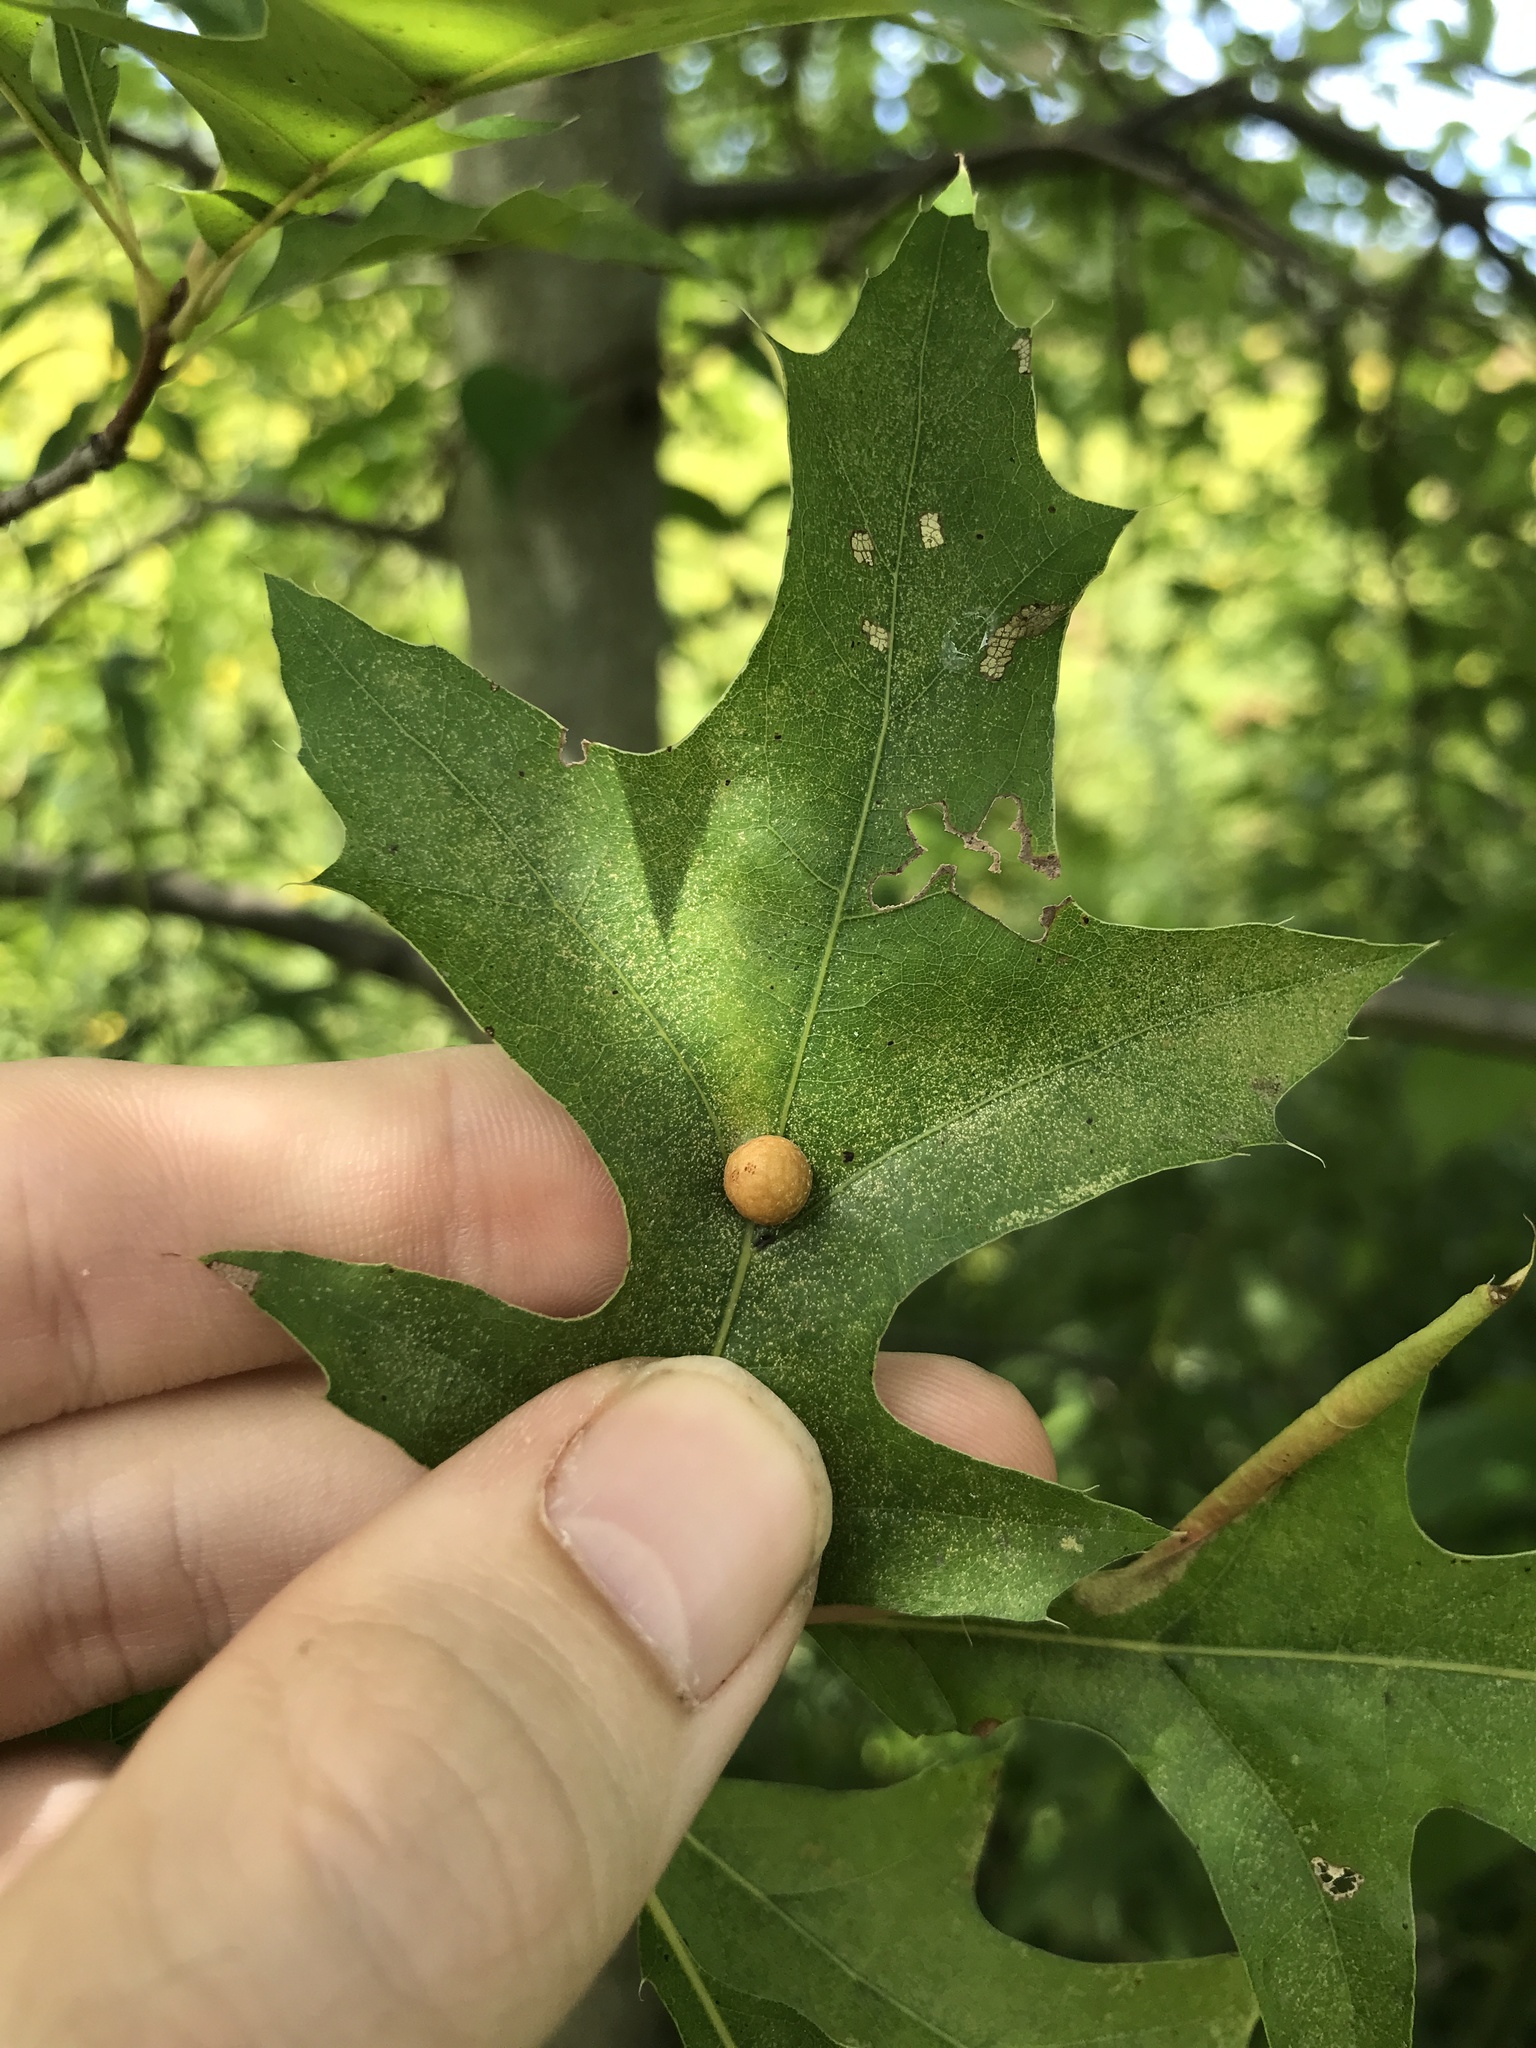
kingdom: Animalia
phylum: Arthropoda
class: Insecta
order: Diptera
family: Cecidomyiidae
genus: Polystepha
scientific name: Polystepha pilulae
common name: Oak leaf gall midge
